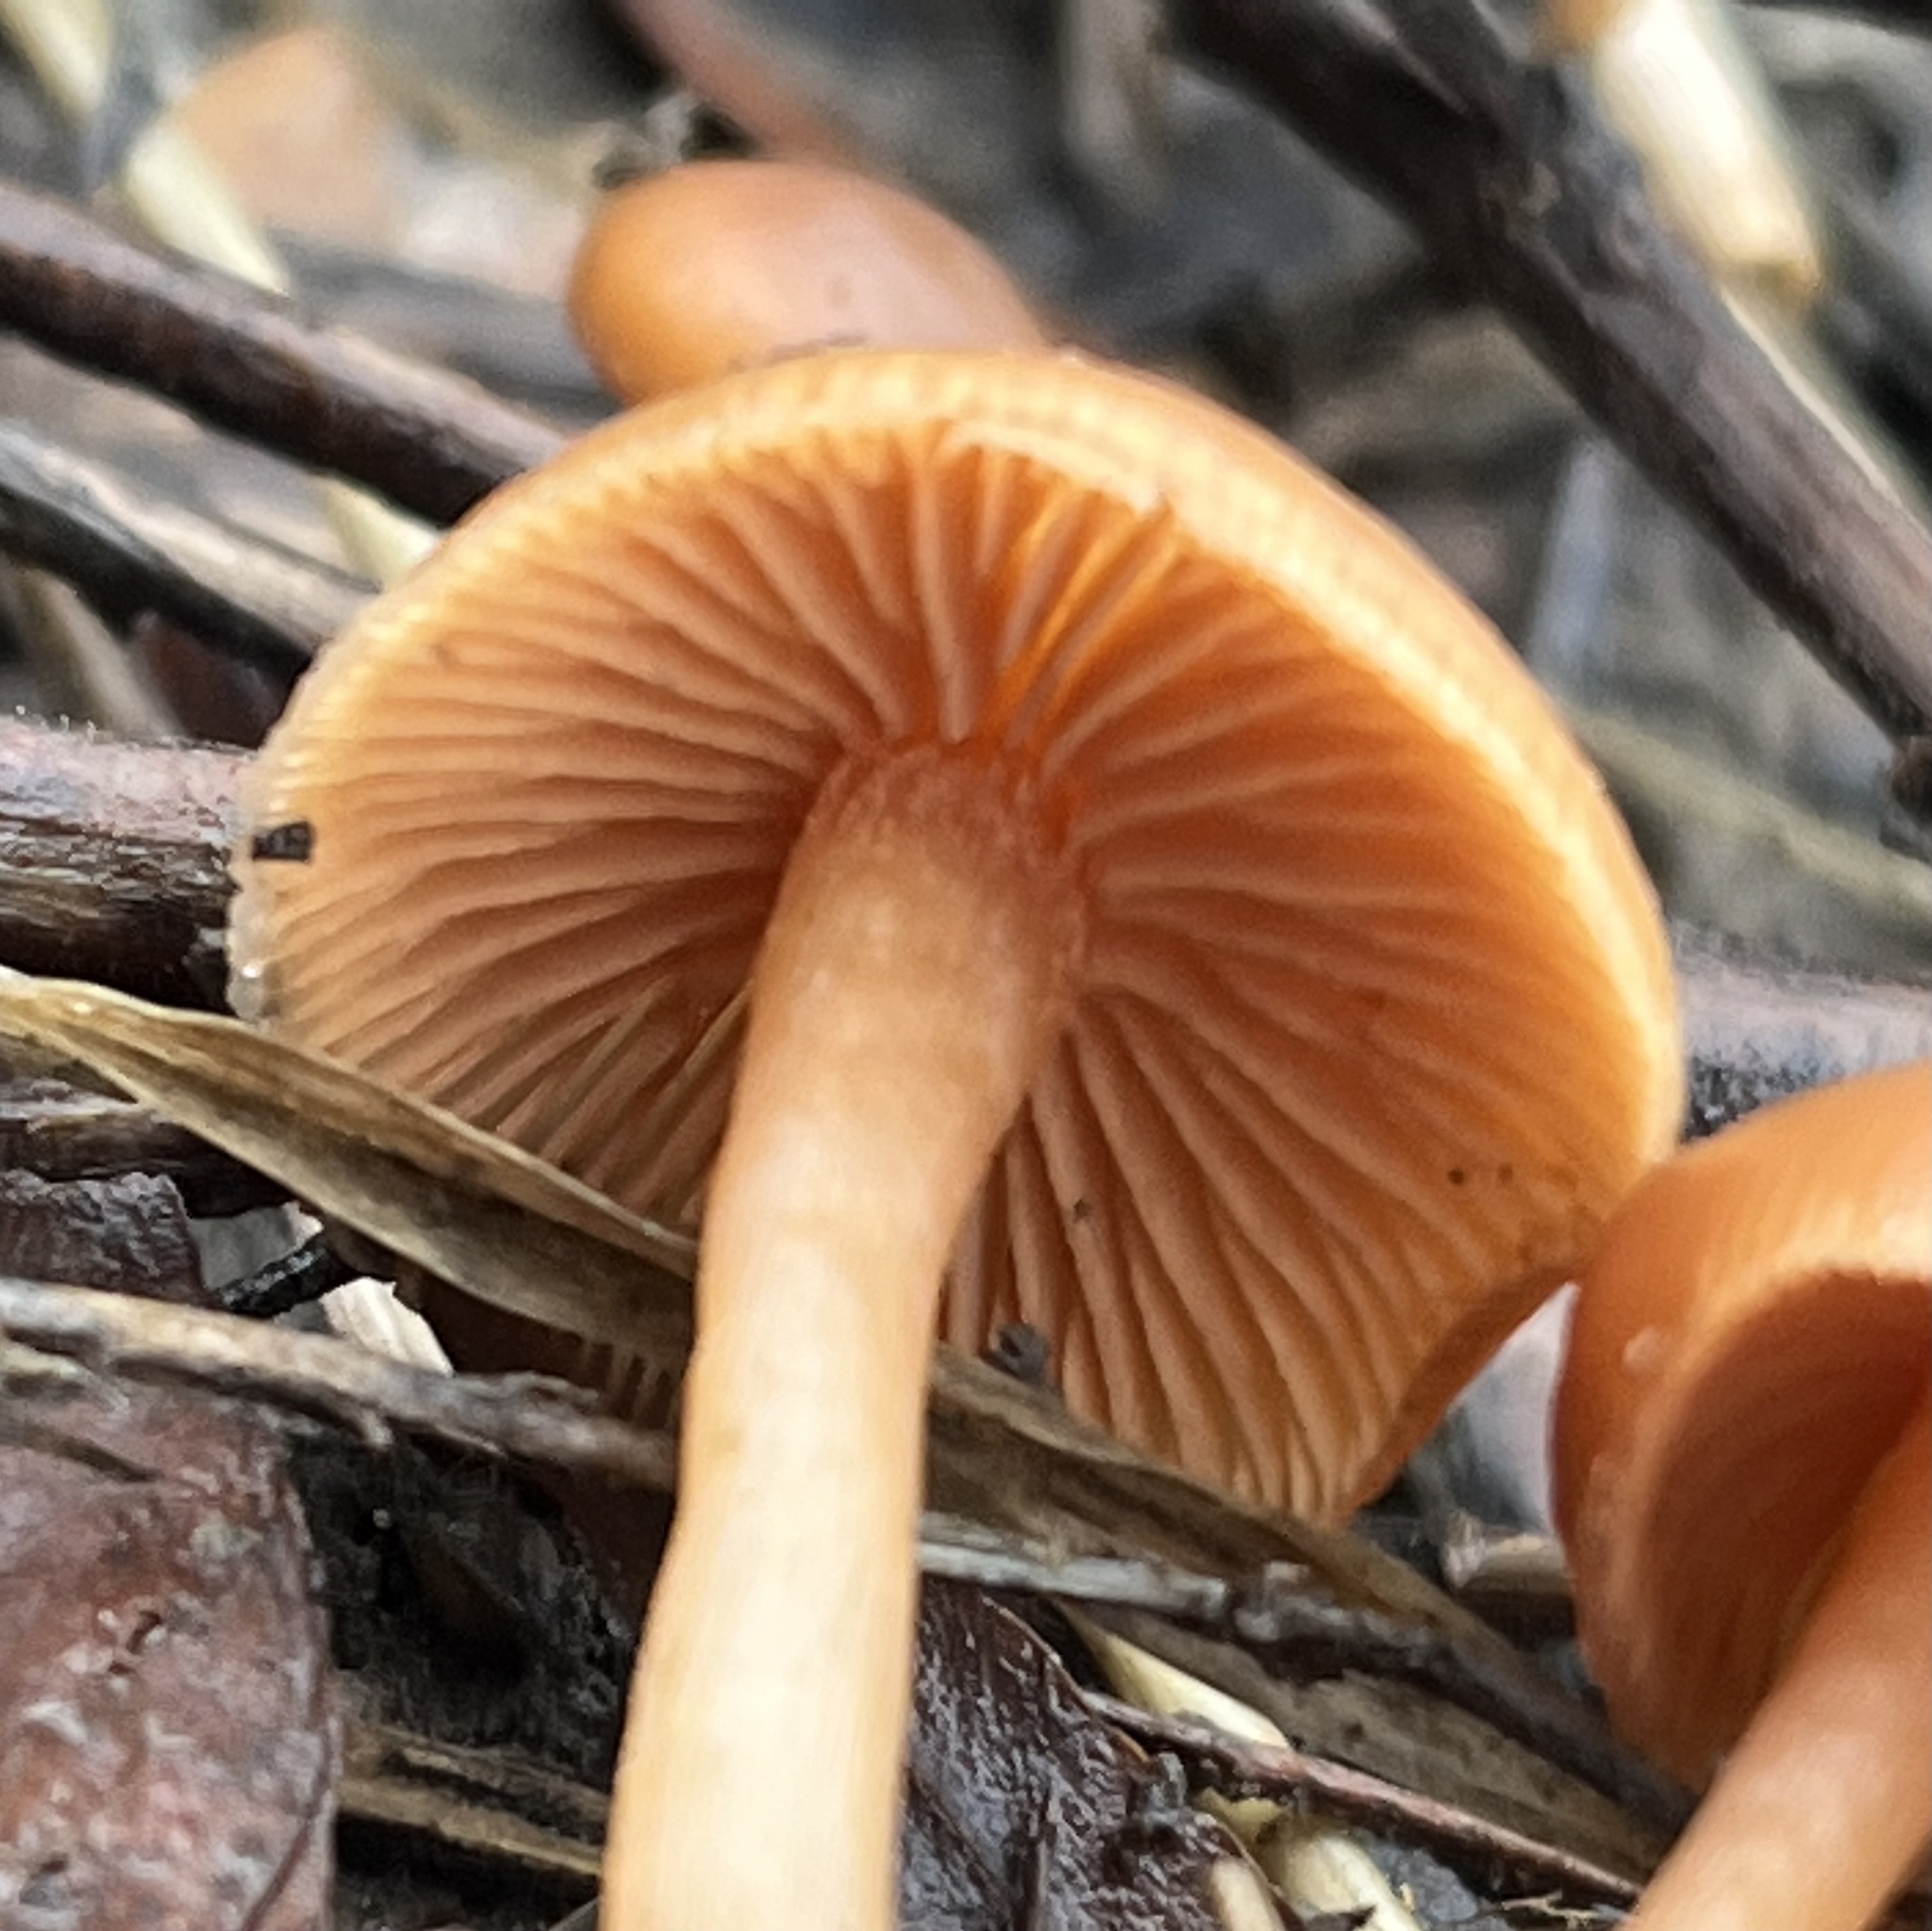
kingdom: Fungi
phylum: Basidiomycota
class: Agaricomycetes
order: Agaricales
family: Tubariaceae
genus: Tubaria
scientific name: Tubaria furfuracea
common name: Scurfy twiglet
